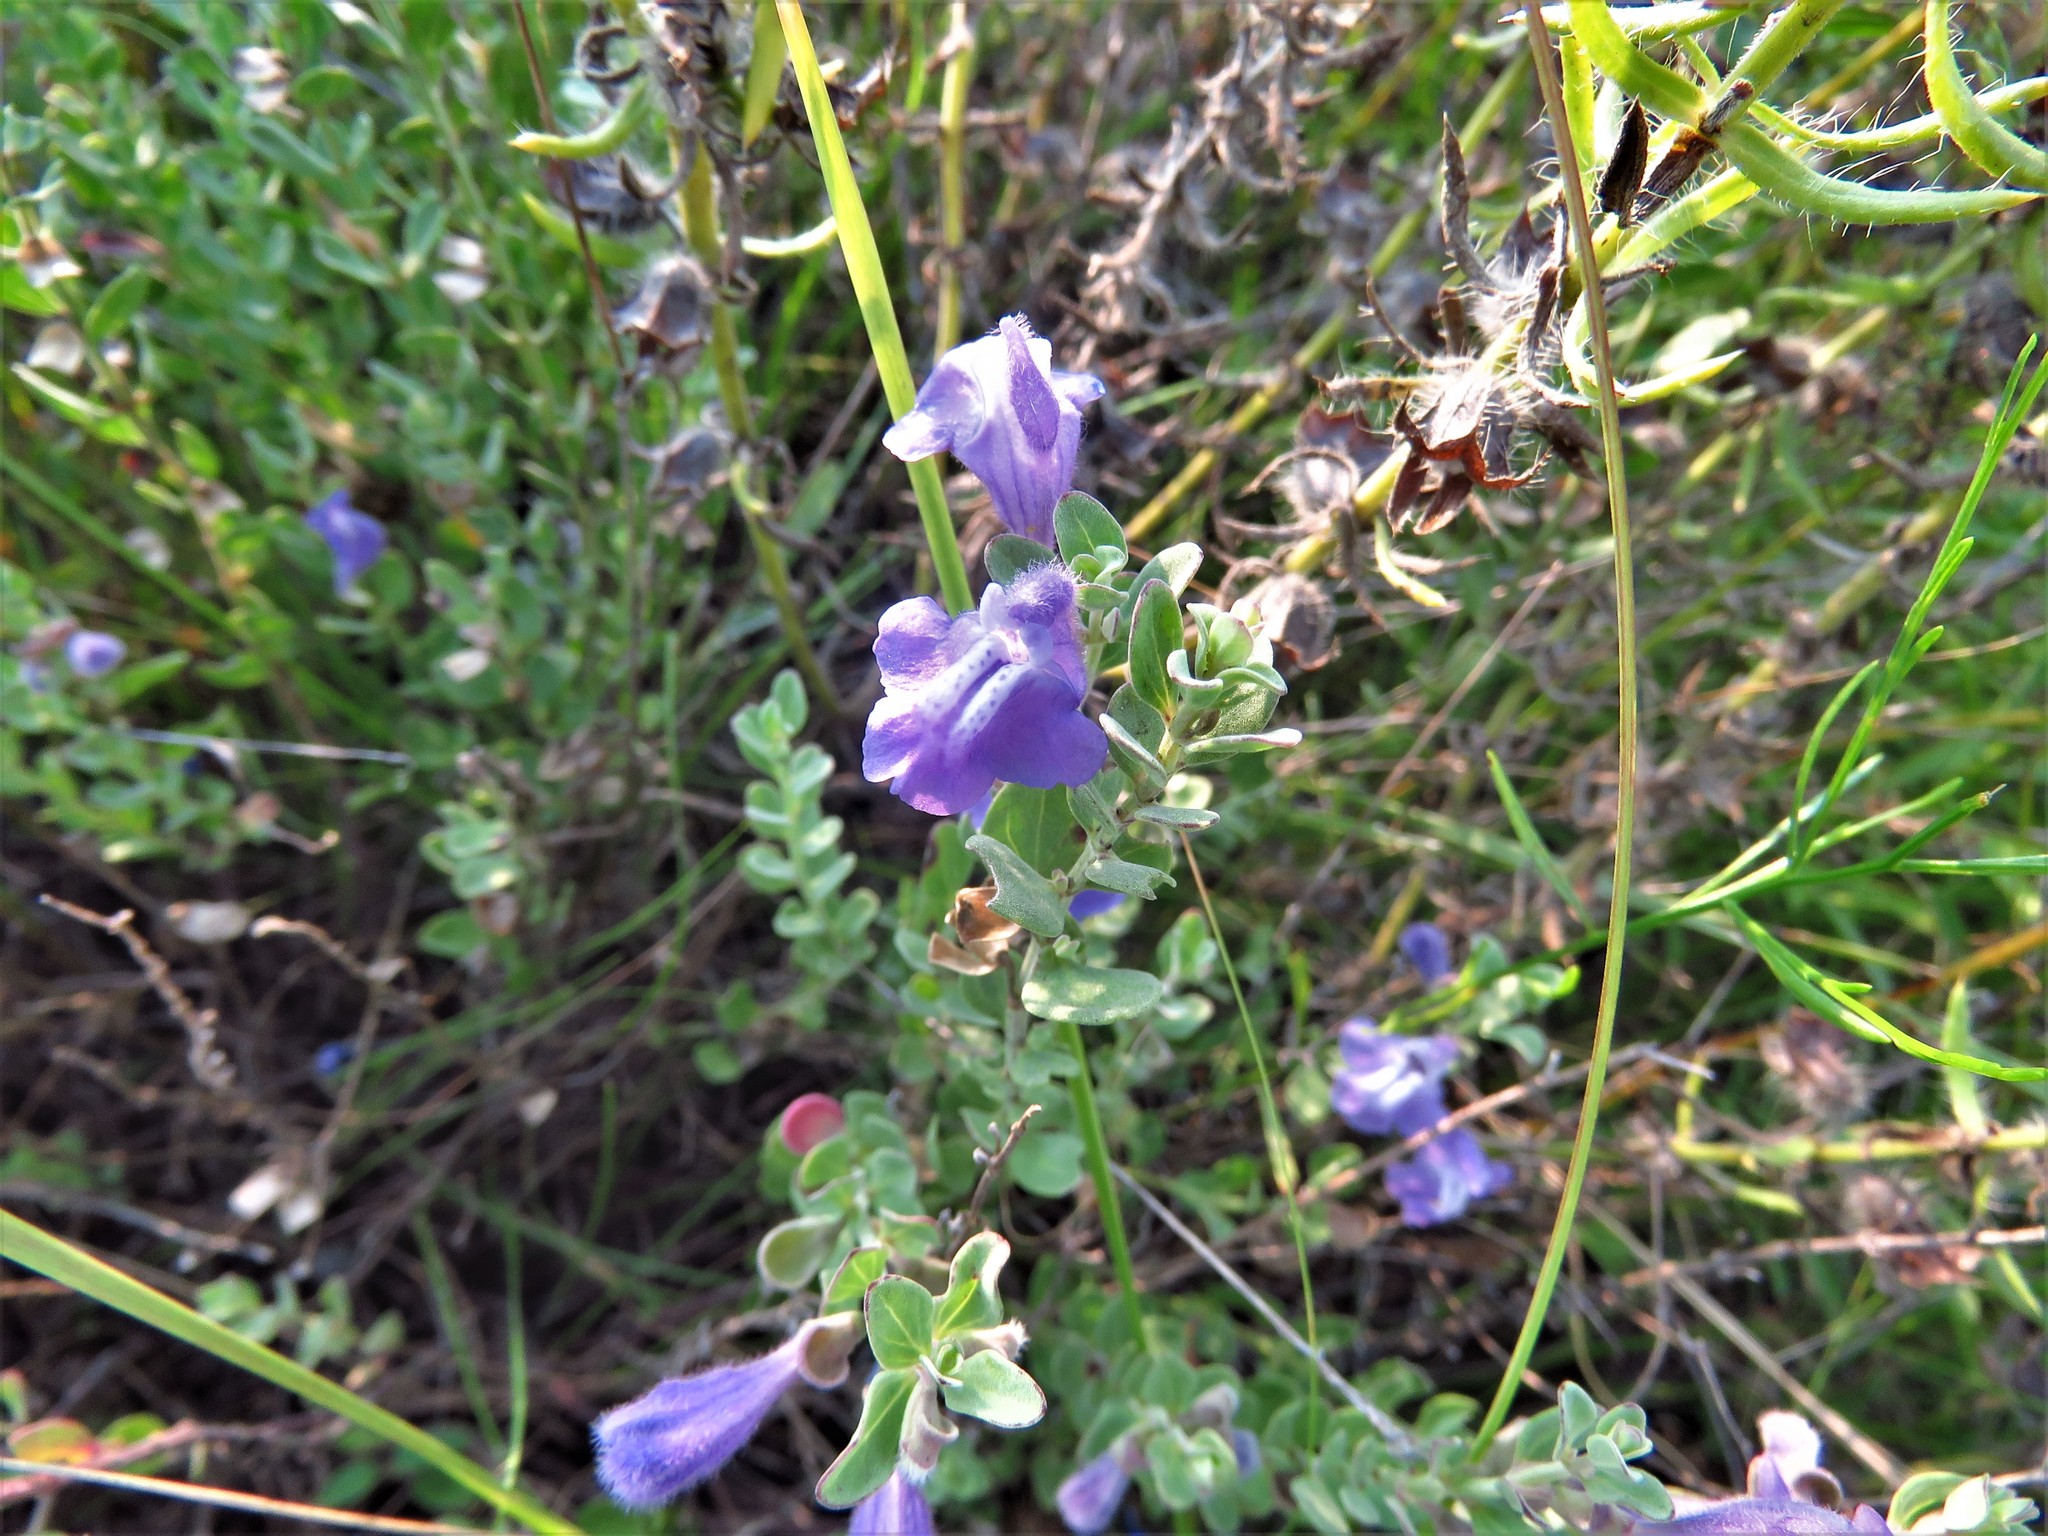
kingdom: Plantae
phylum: Tracheophyta
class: Magnoliopsida
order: Lamiales
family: Lamiaceae
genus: Scutellaria
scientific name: Scutellaria wrightii
